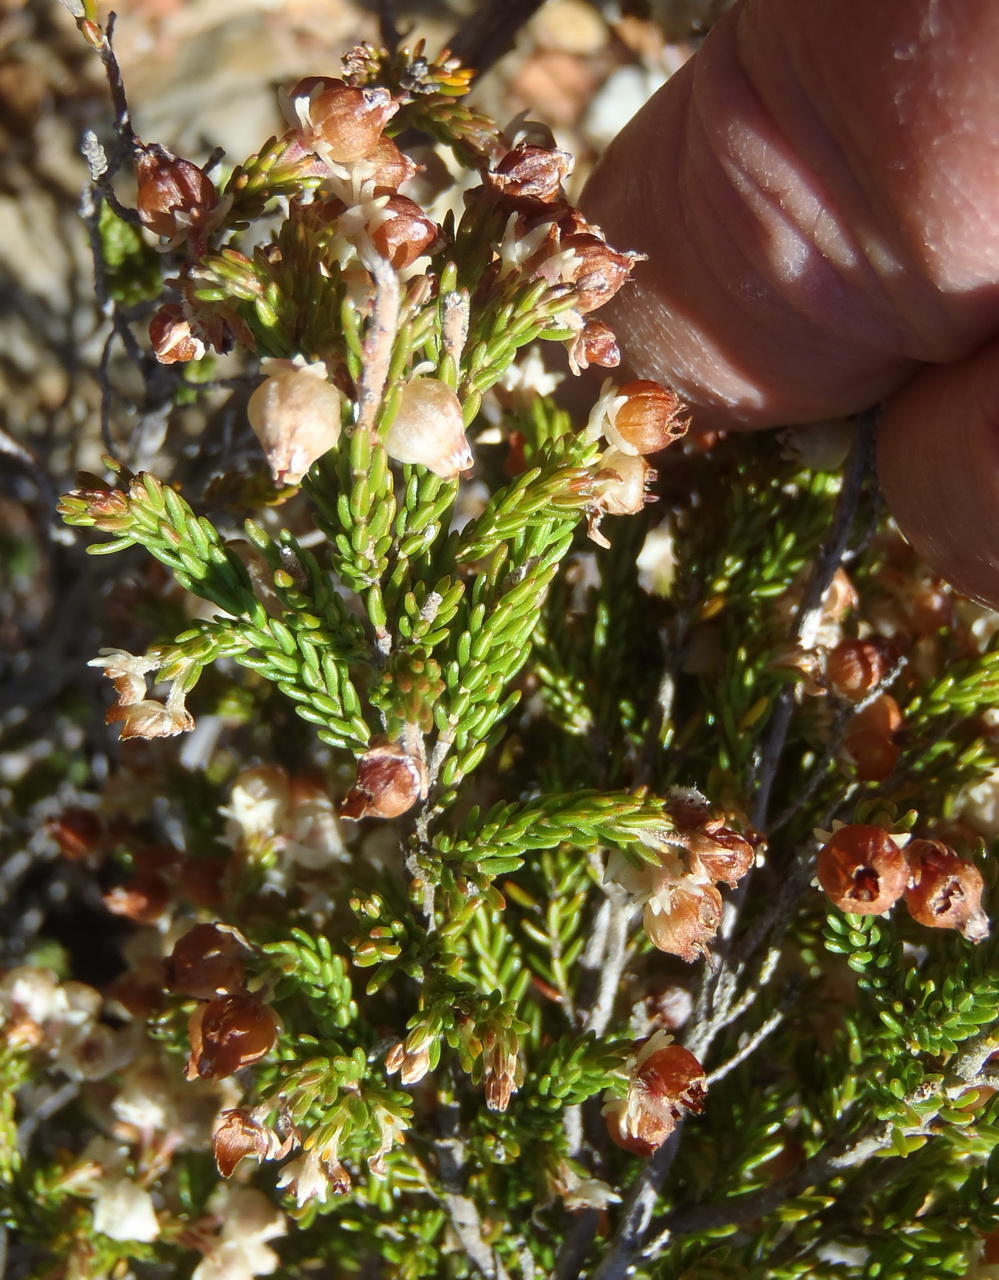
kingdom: Plantae
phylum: Tracheophyta
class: Magnoliopsida
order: Ericales
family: Ericaceae
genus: Erica
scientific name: Erica syngenesia
